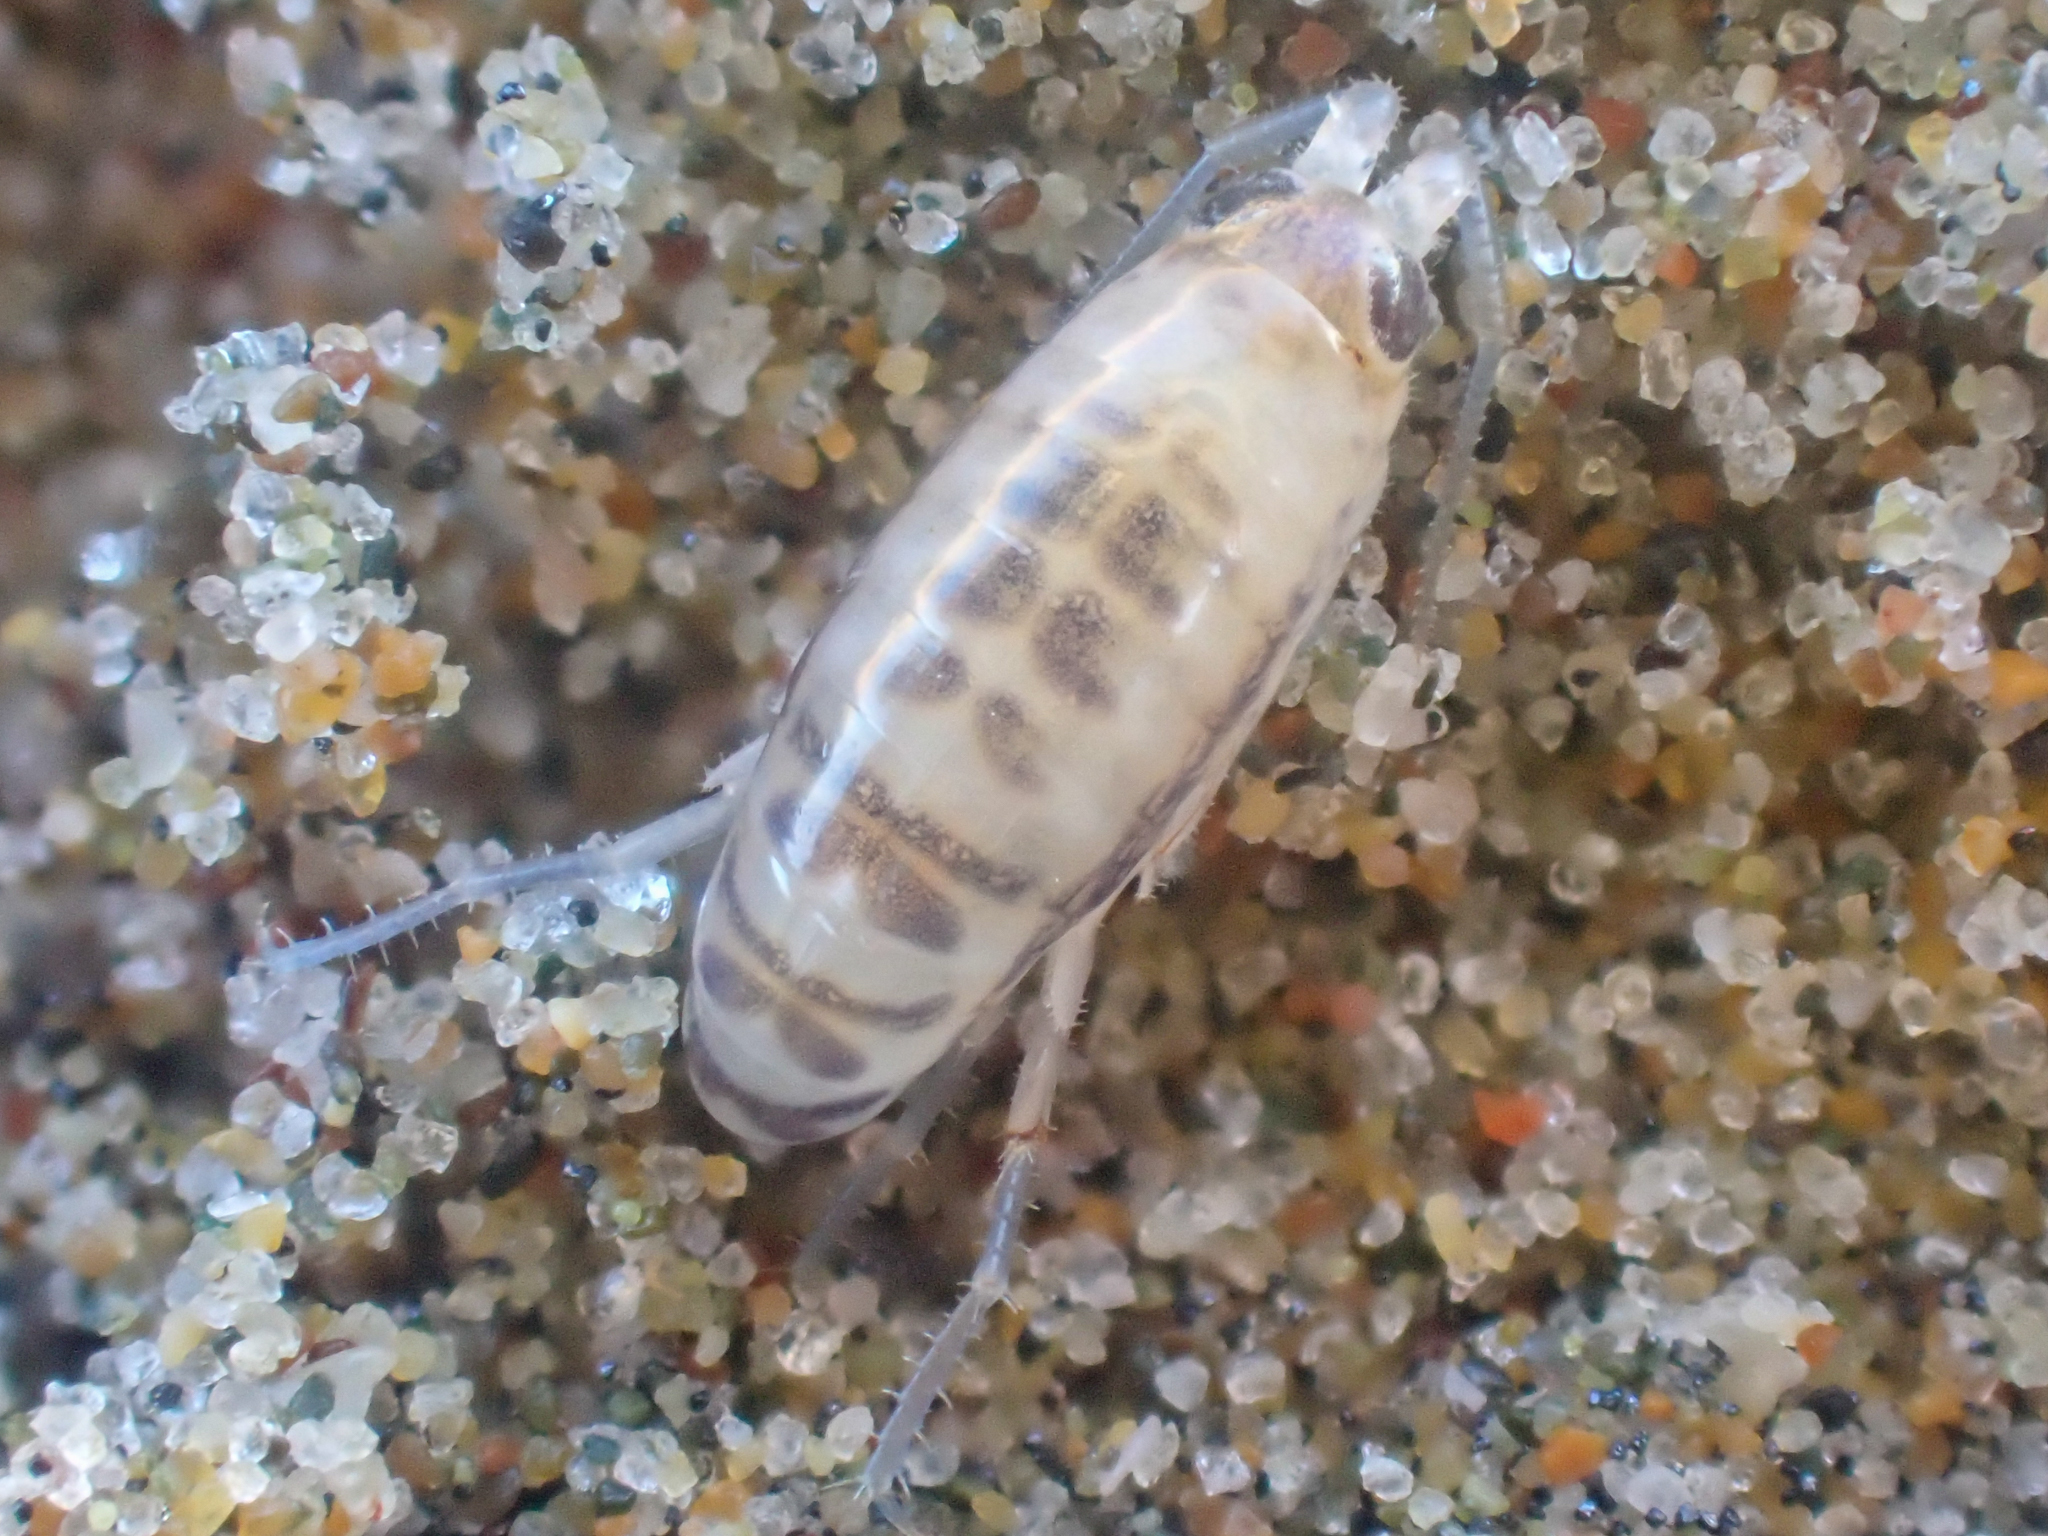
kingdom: Animalia
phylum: Arthropoda
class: Malacostraca
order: Amphipoda
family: Talitridae
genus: Megalorchestia
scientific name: Megalorchestia minor
